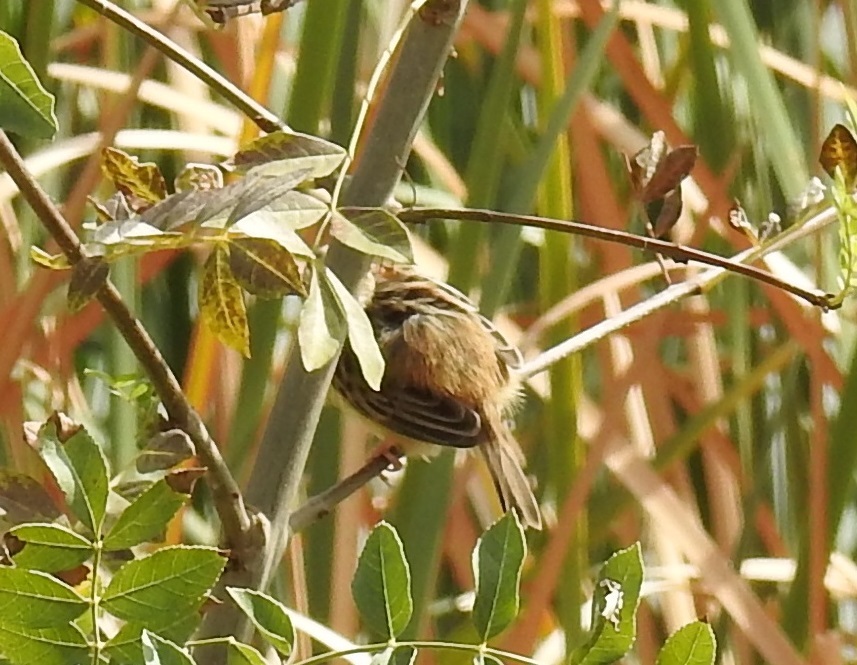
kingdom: Animalia
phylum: Chordata
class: Aves
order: Passeriformes
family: Cisticolidae
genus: Cisticola
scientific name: Cisticola juncidis
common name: Zitting cisticola
